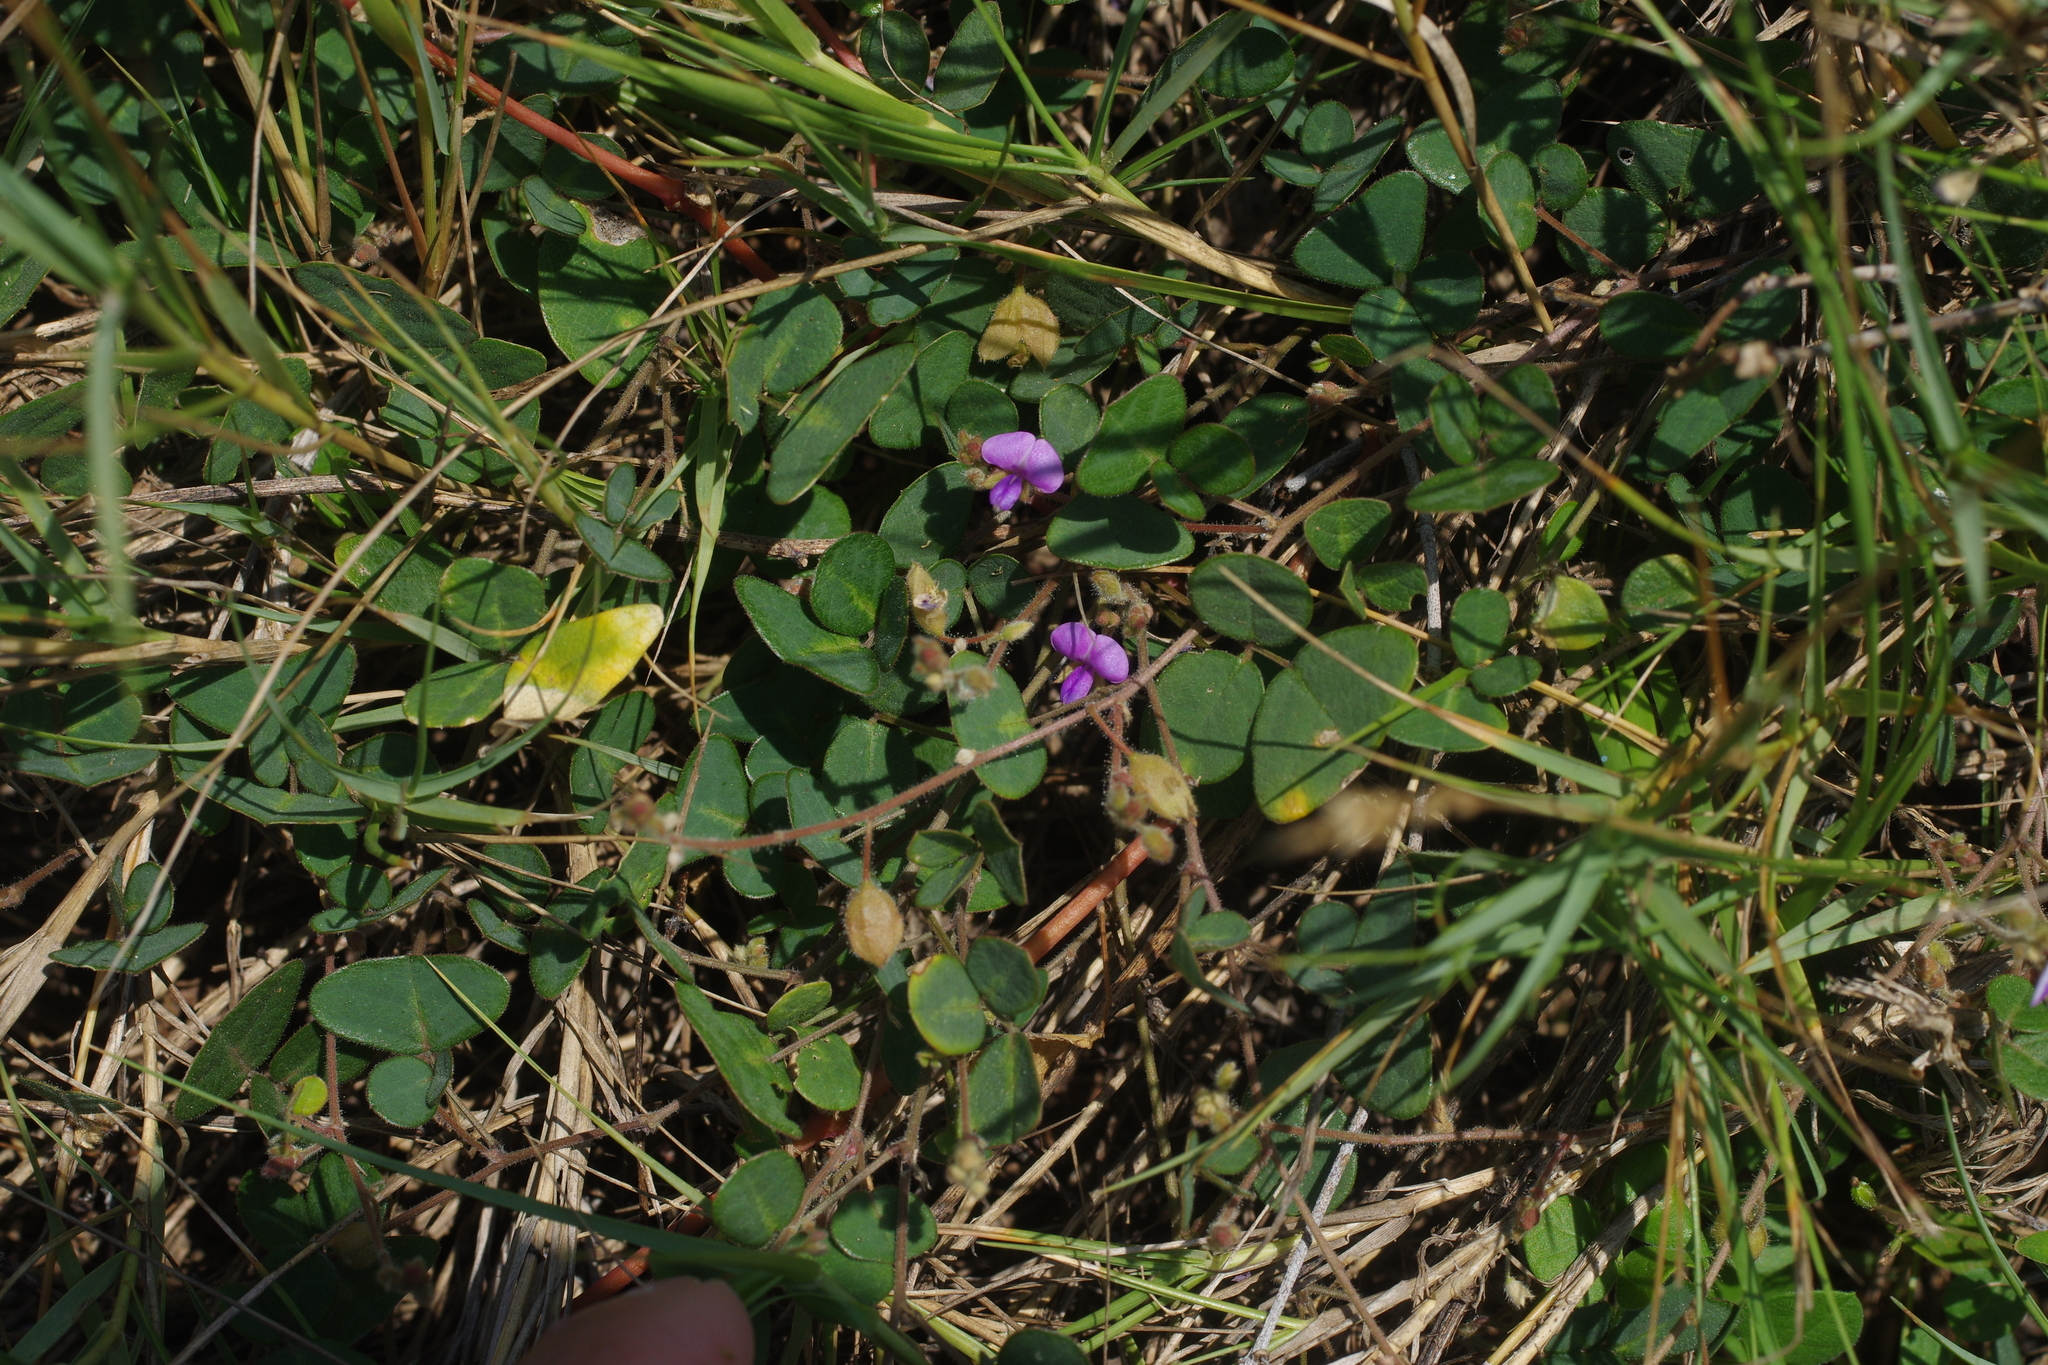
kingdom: Plantae
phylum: Tracheophyta
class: Magnoliopsida
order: Fabales
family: Fabaceae
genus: Christia
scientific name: Christia obcordata
